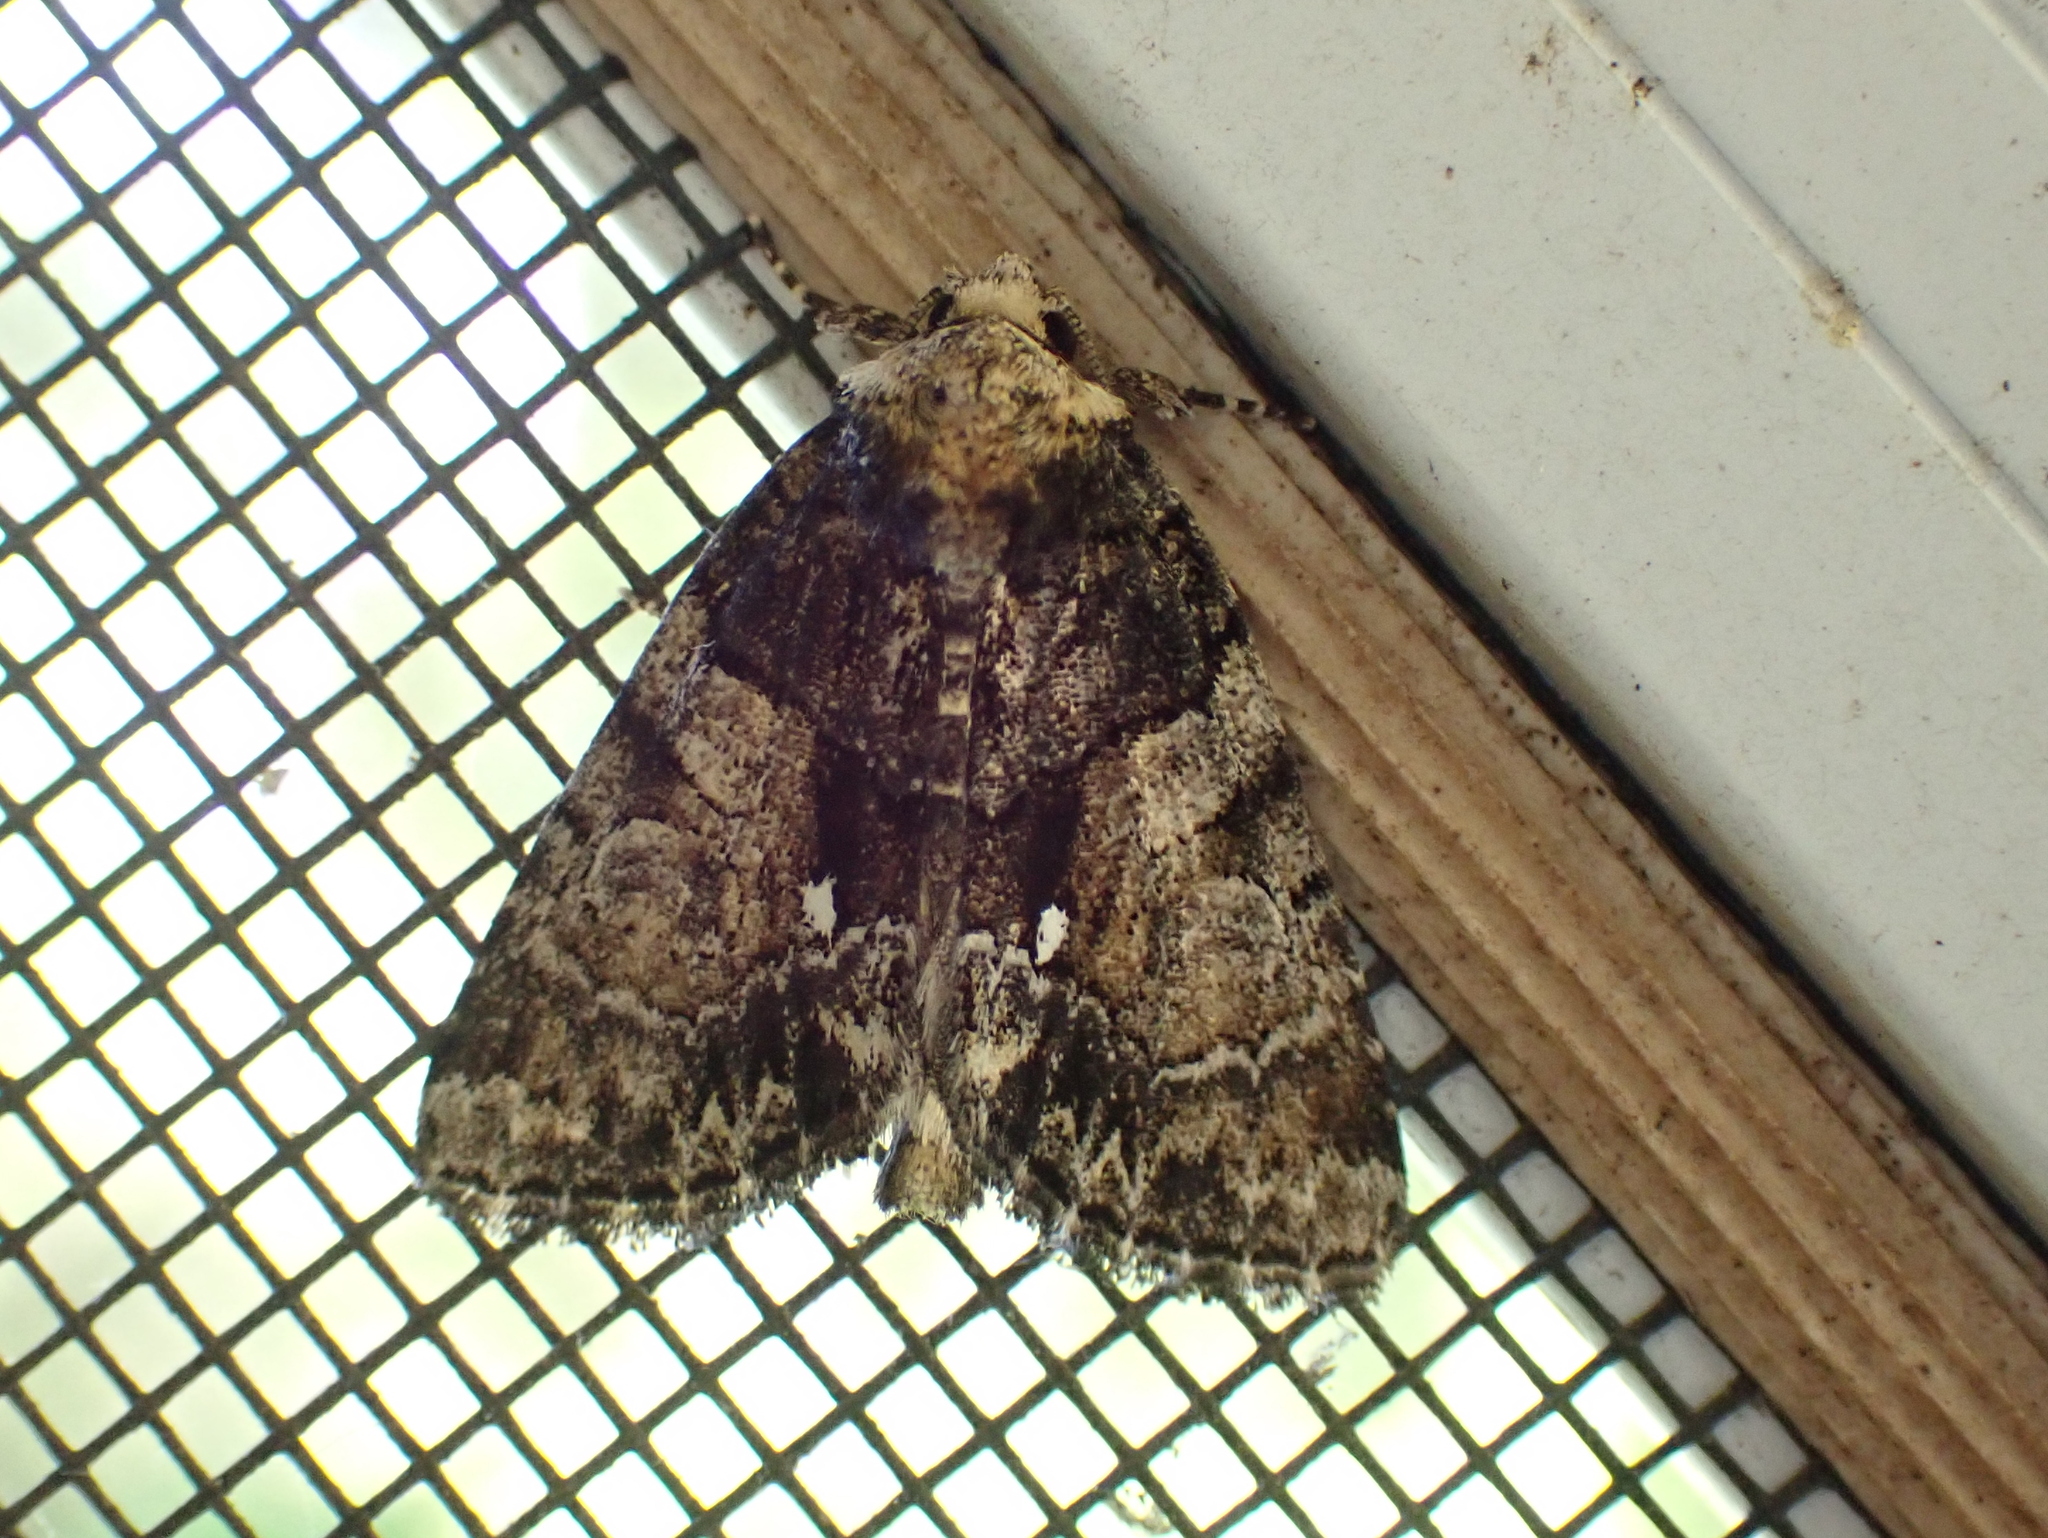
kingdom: Animalia
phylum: Arthropoda
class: Insecta
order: Lepidoptera
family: Noctuidae
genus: Chytonix
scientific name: Chytonix palliatricula
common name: Cloaked marvel
